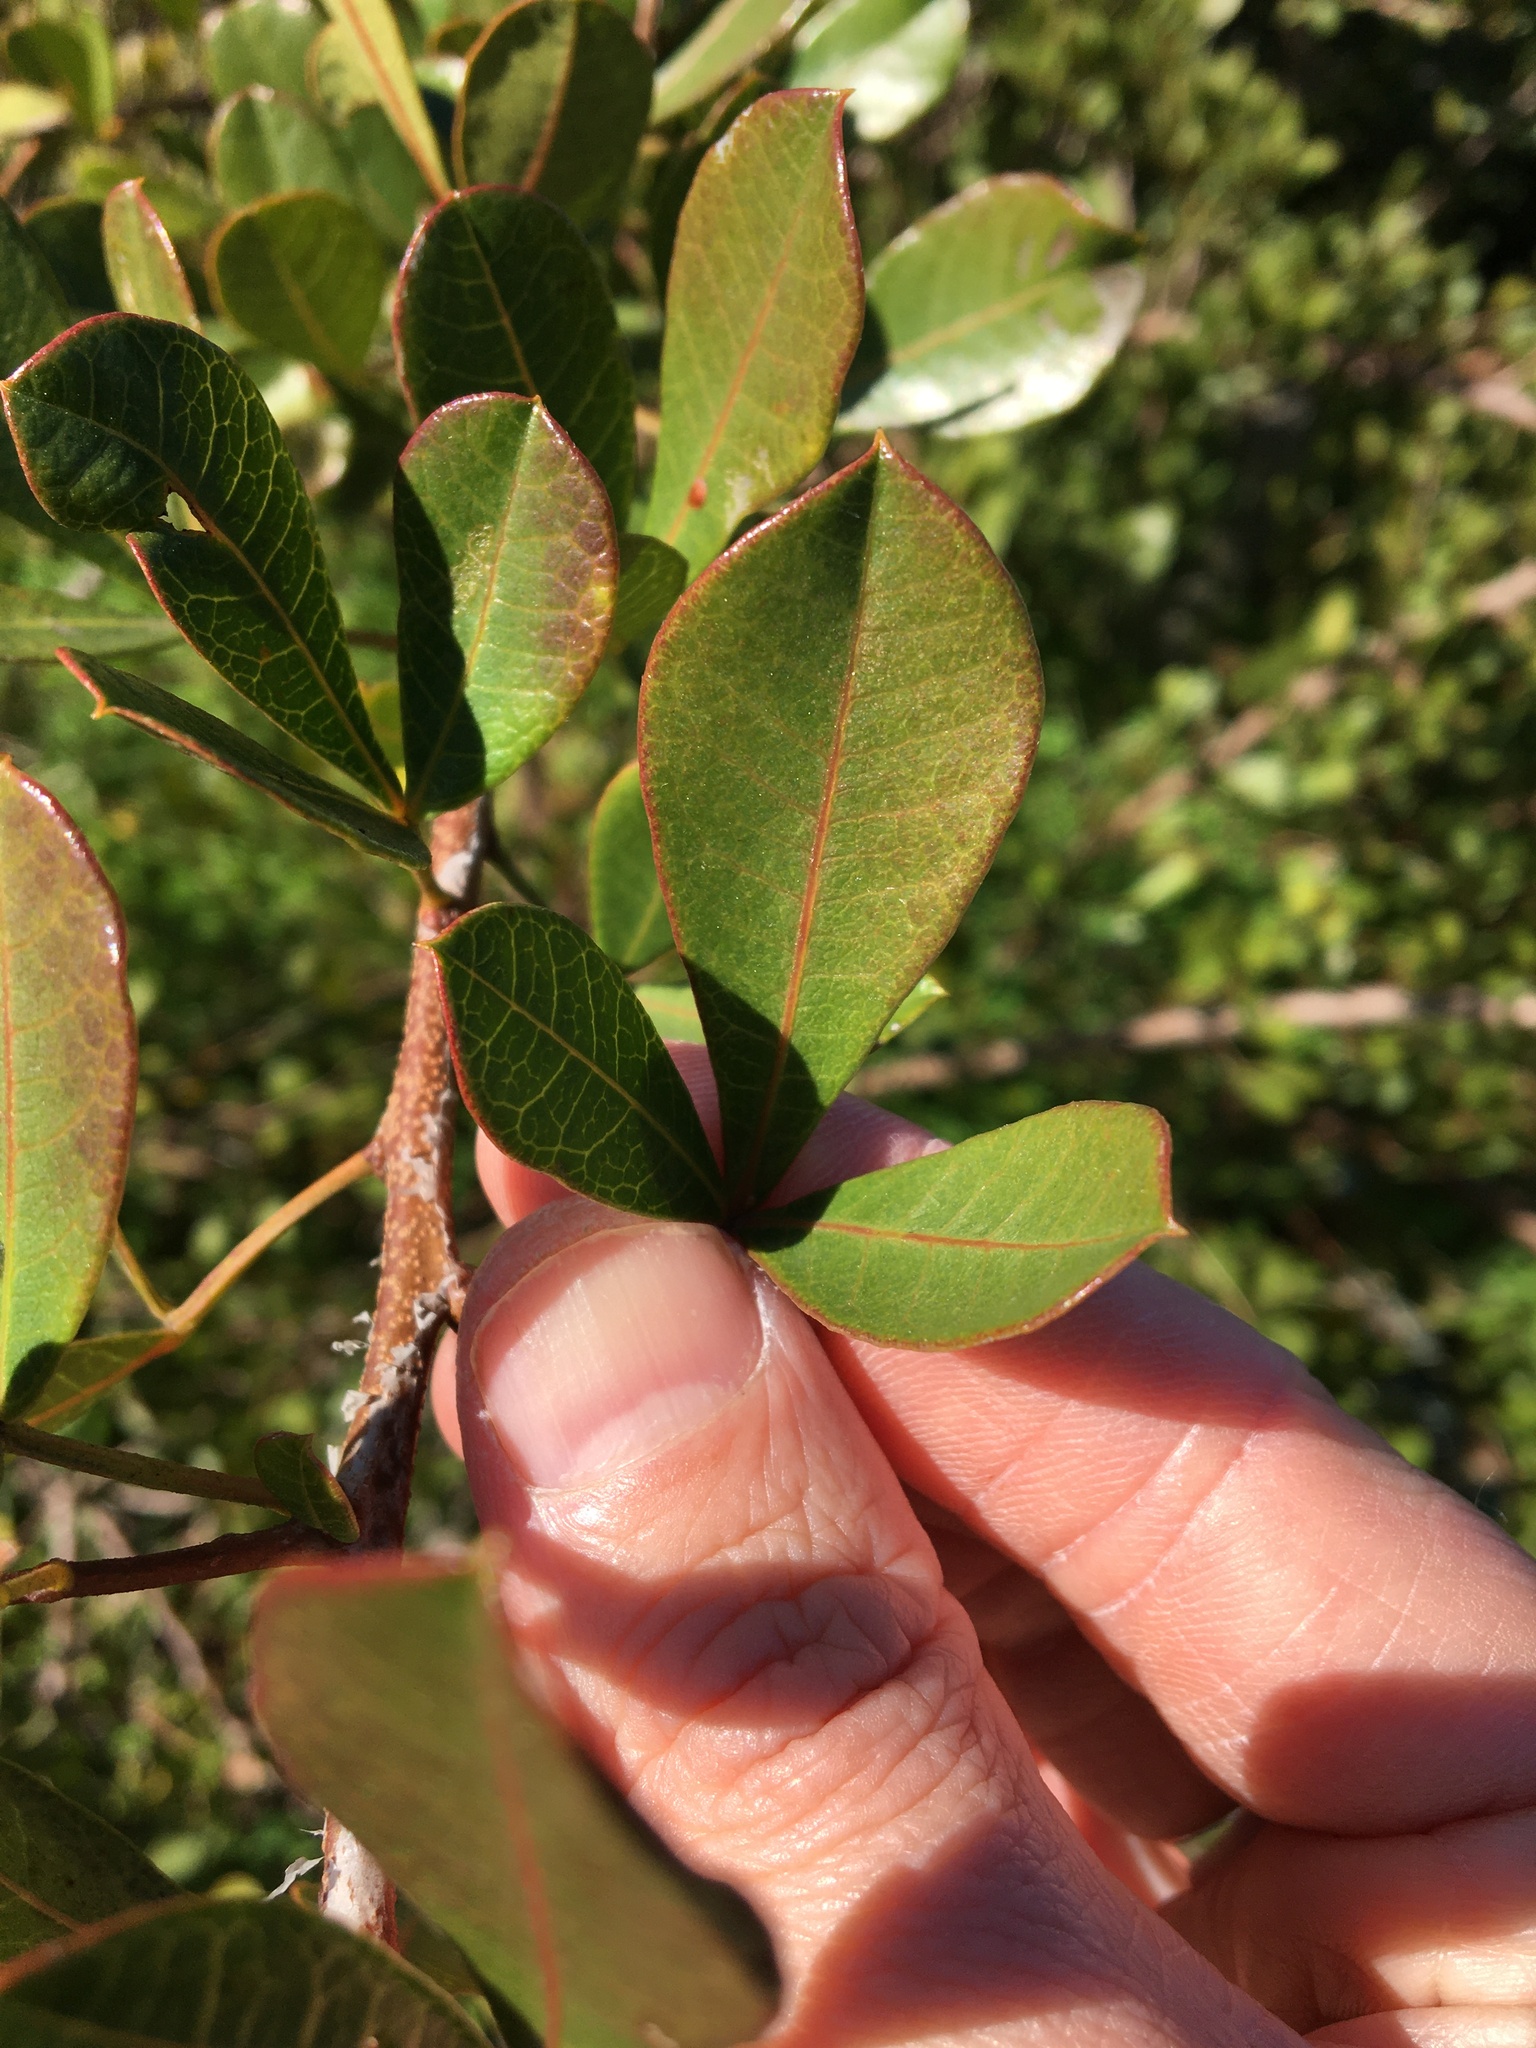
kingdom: Plantae
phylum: Tracheophyta
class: Magnoliopsida
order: Sapindales
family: Anacardiaceae
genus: Searsia
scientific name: Searsia laevigata
